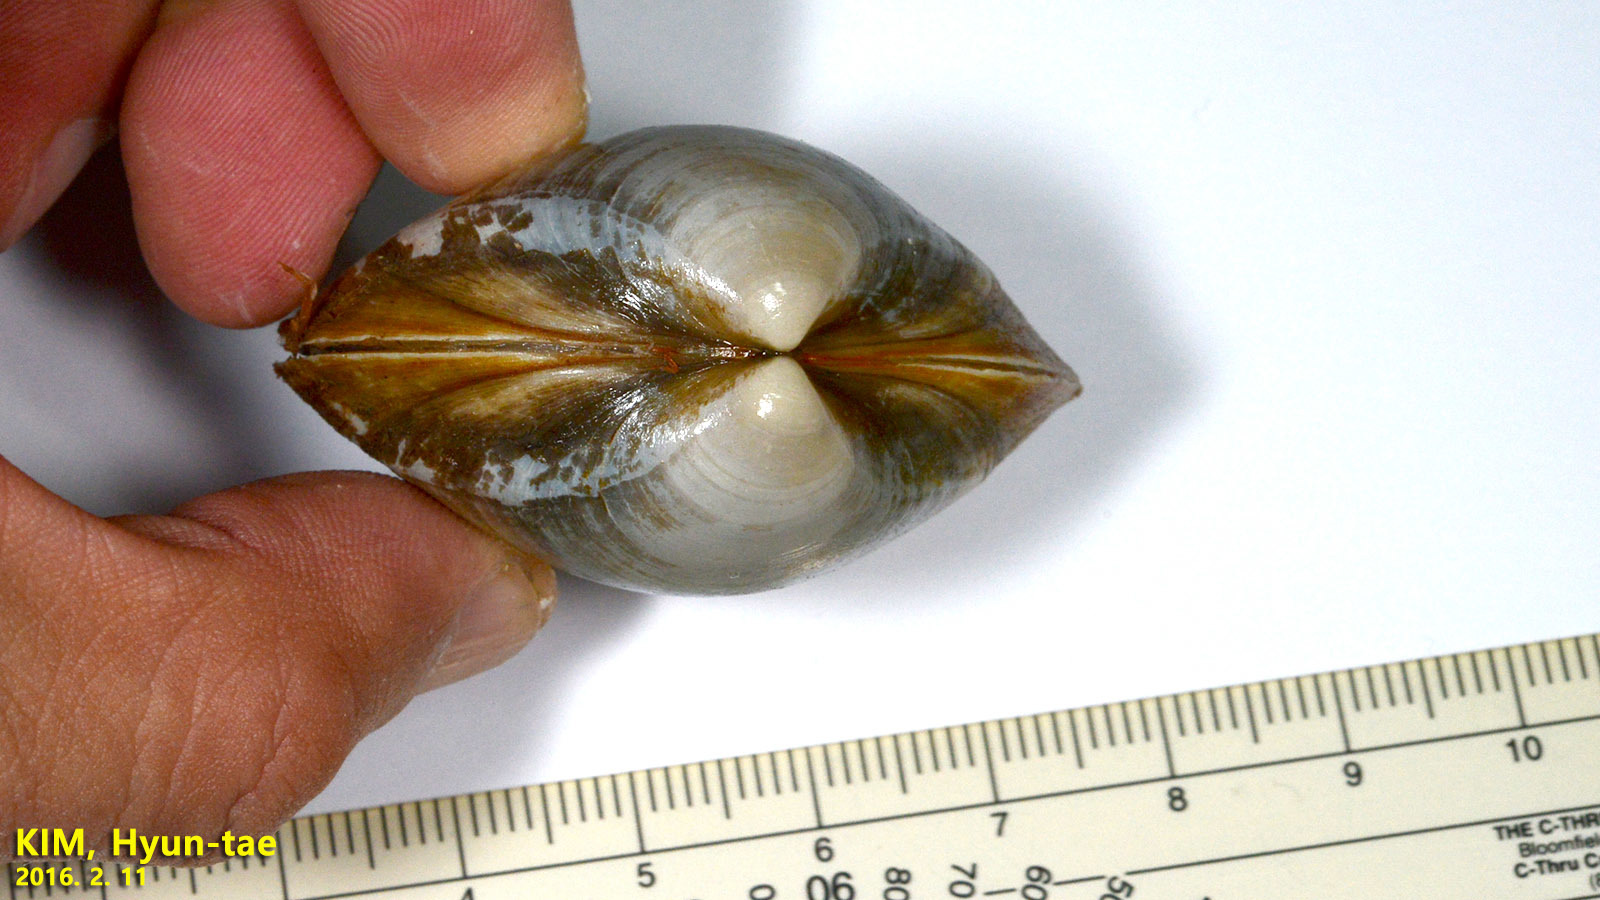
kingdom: Animalia
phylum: Mollusca
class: Bivalvia
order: Venerida
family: Mactridae
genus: Mactra
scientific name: Mactra quadrangularis
